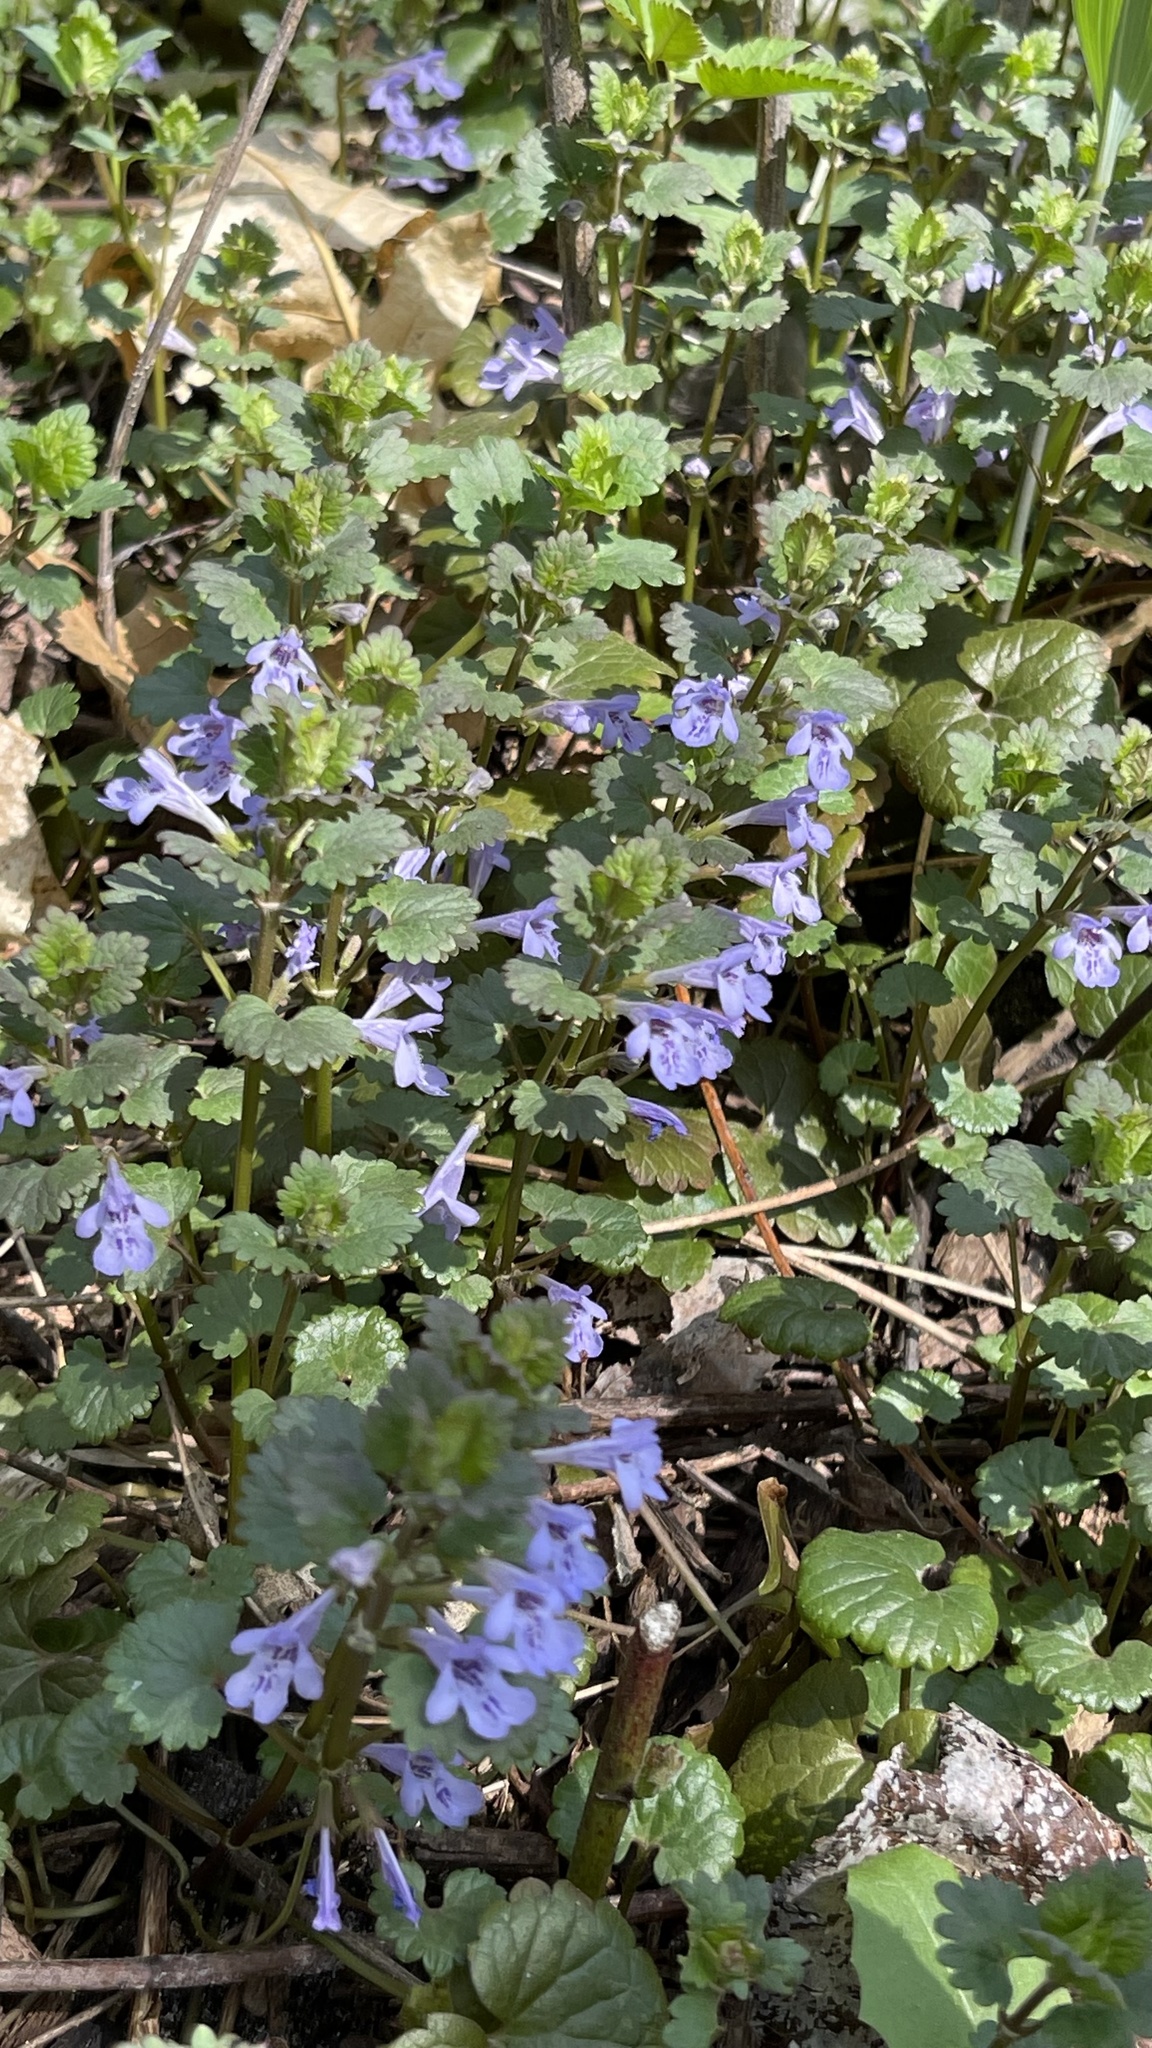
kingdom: Plantae
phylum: Tracheophyta
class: Magnoliopsida
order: Lamiales
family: Lamiaceae
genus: Glechoma
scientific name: Glechoma hederacea
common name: Ground ivy
